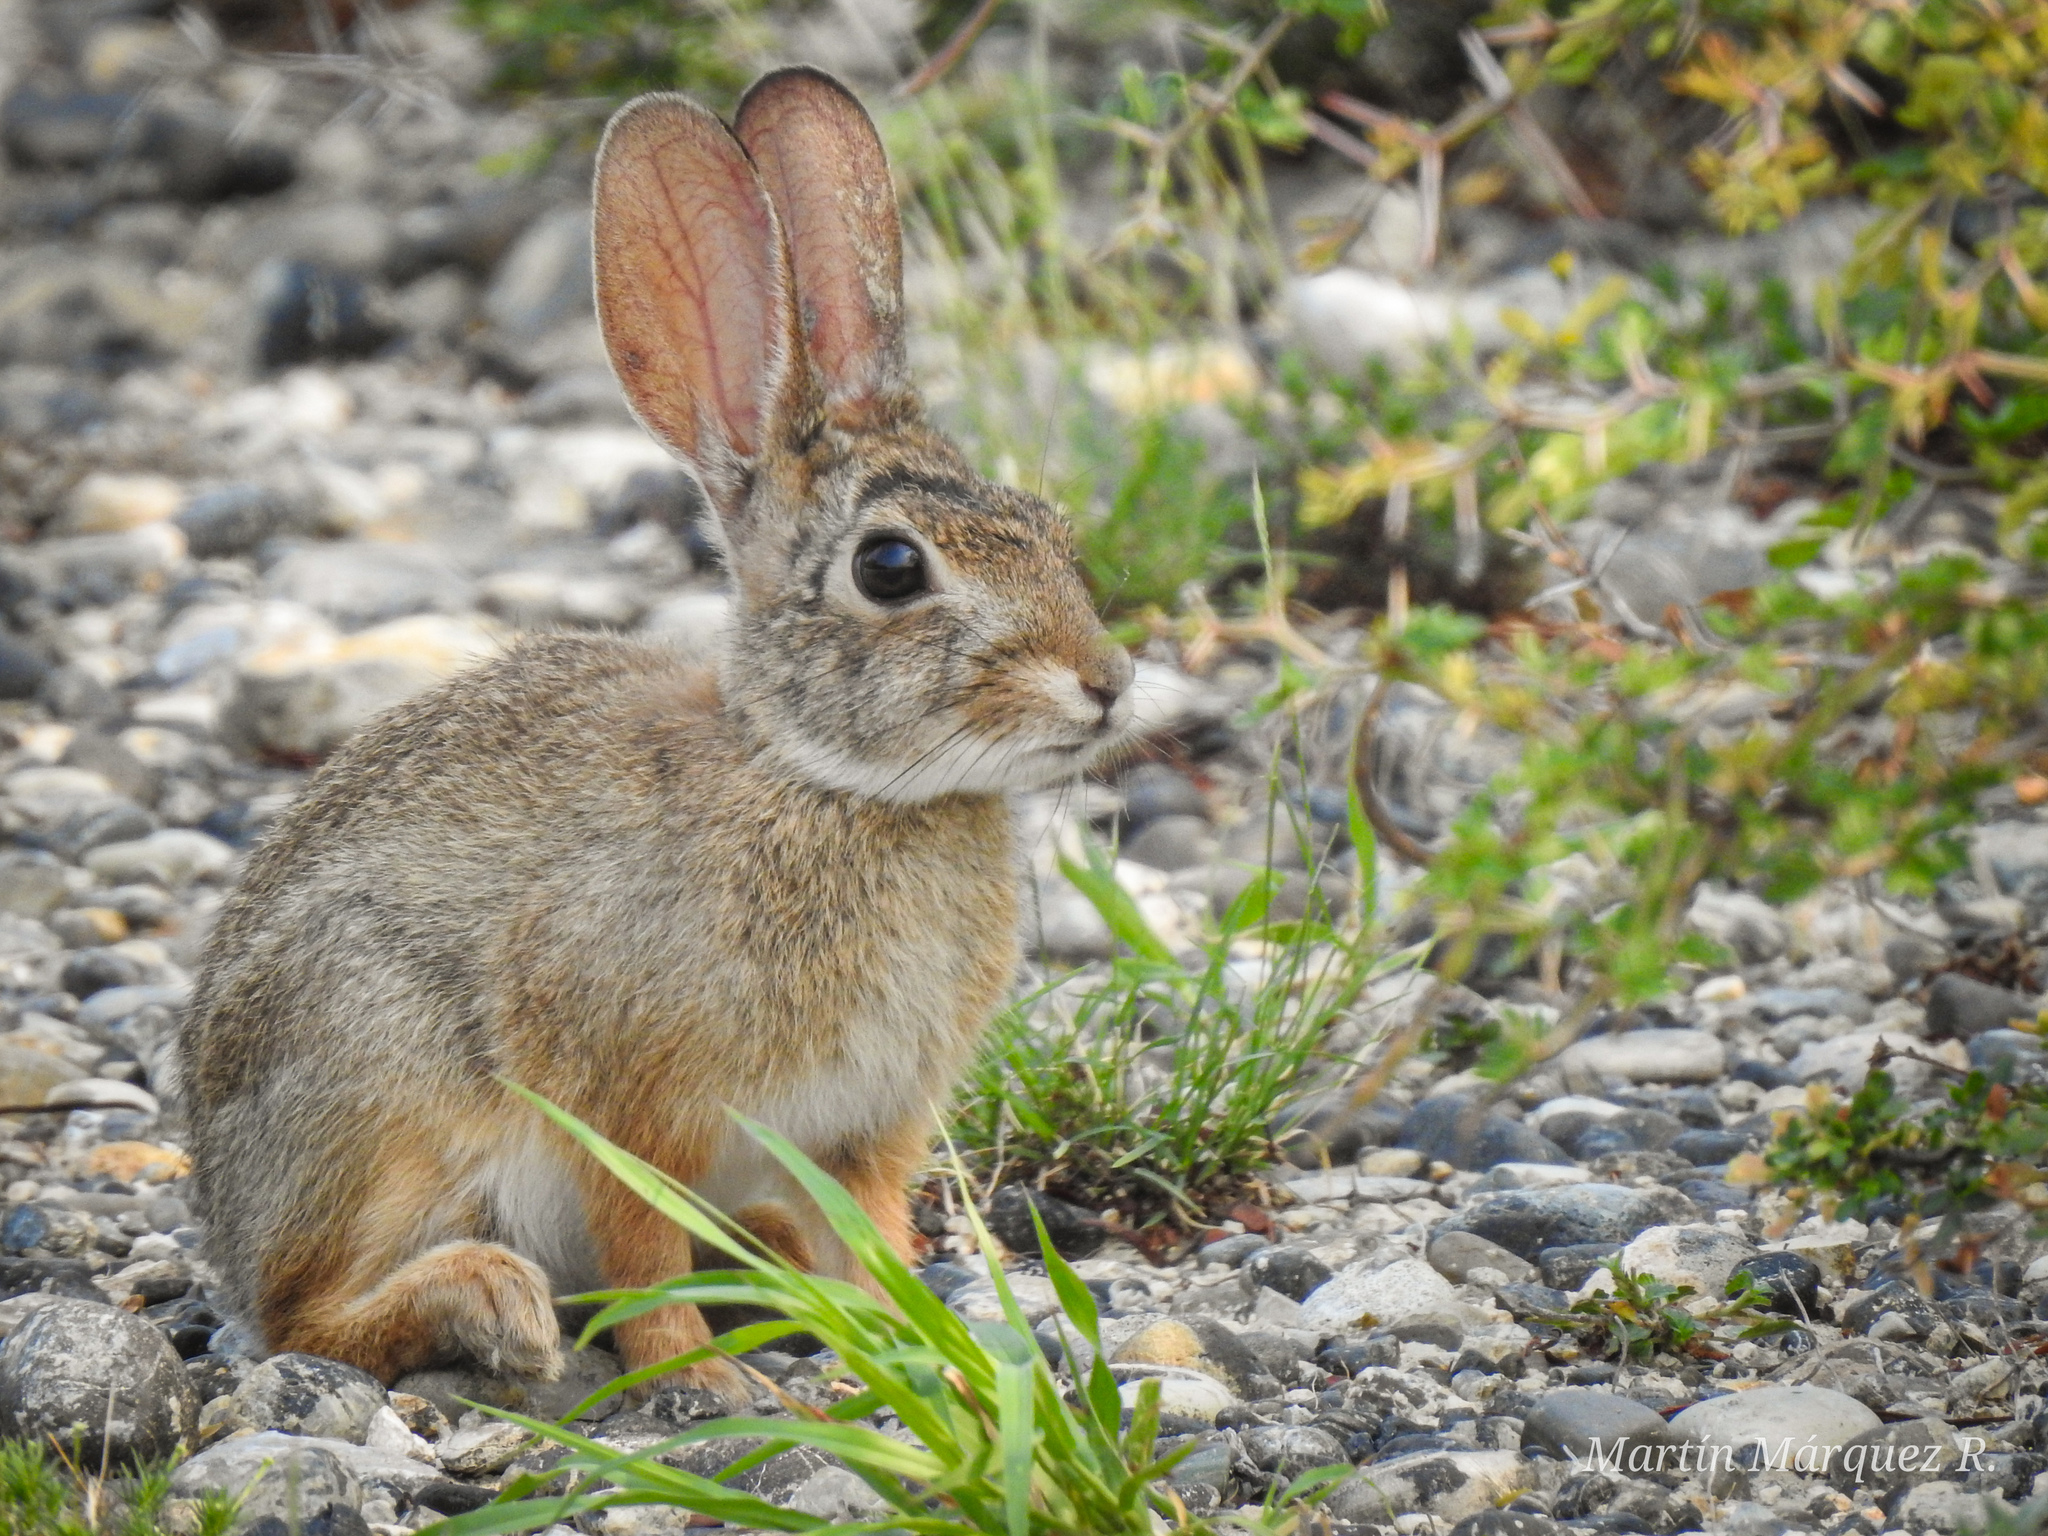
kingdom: Animalia
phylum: Chordata
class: Mammalia
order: Lagomorpha
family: Leporidae
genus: Sylvilagus
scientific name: Sylvilagus audubonii
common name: Desert cottontail
